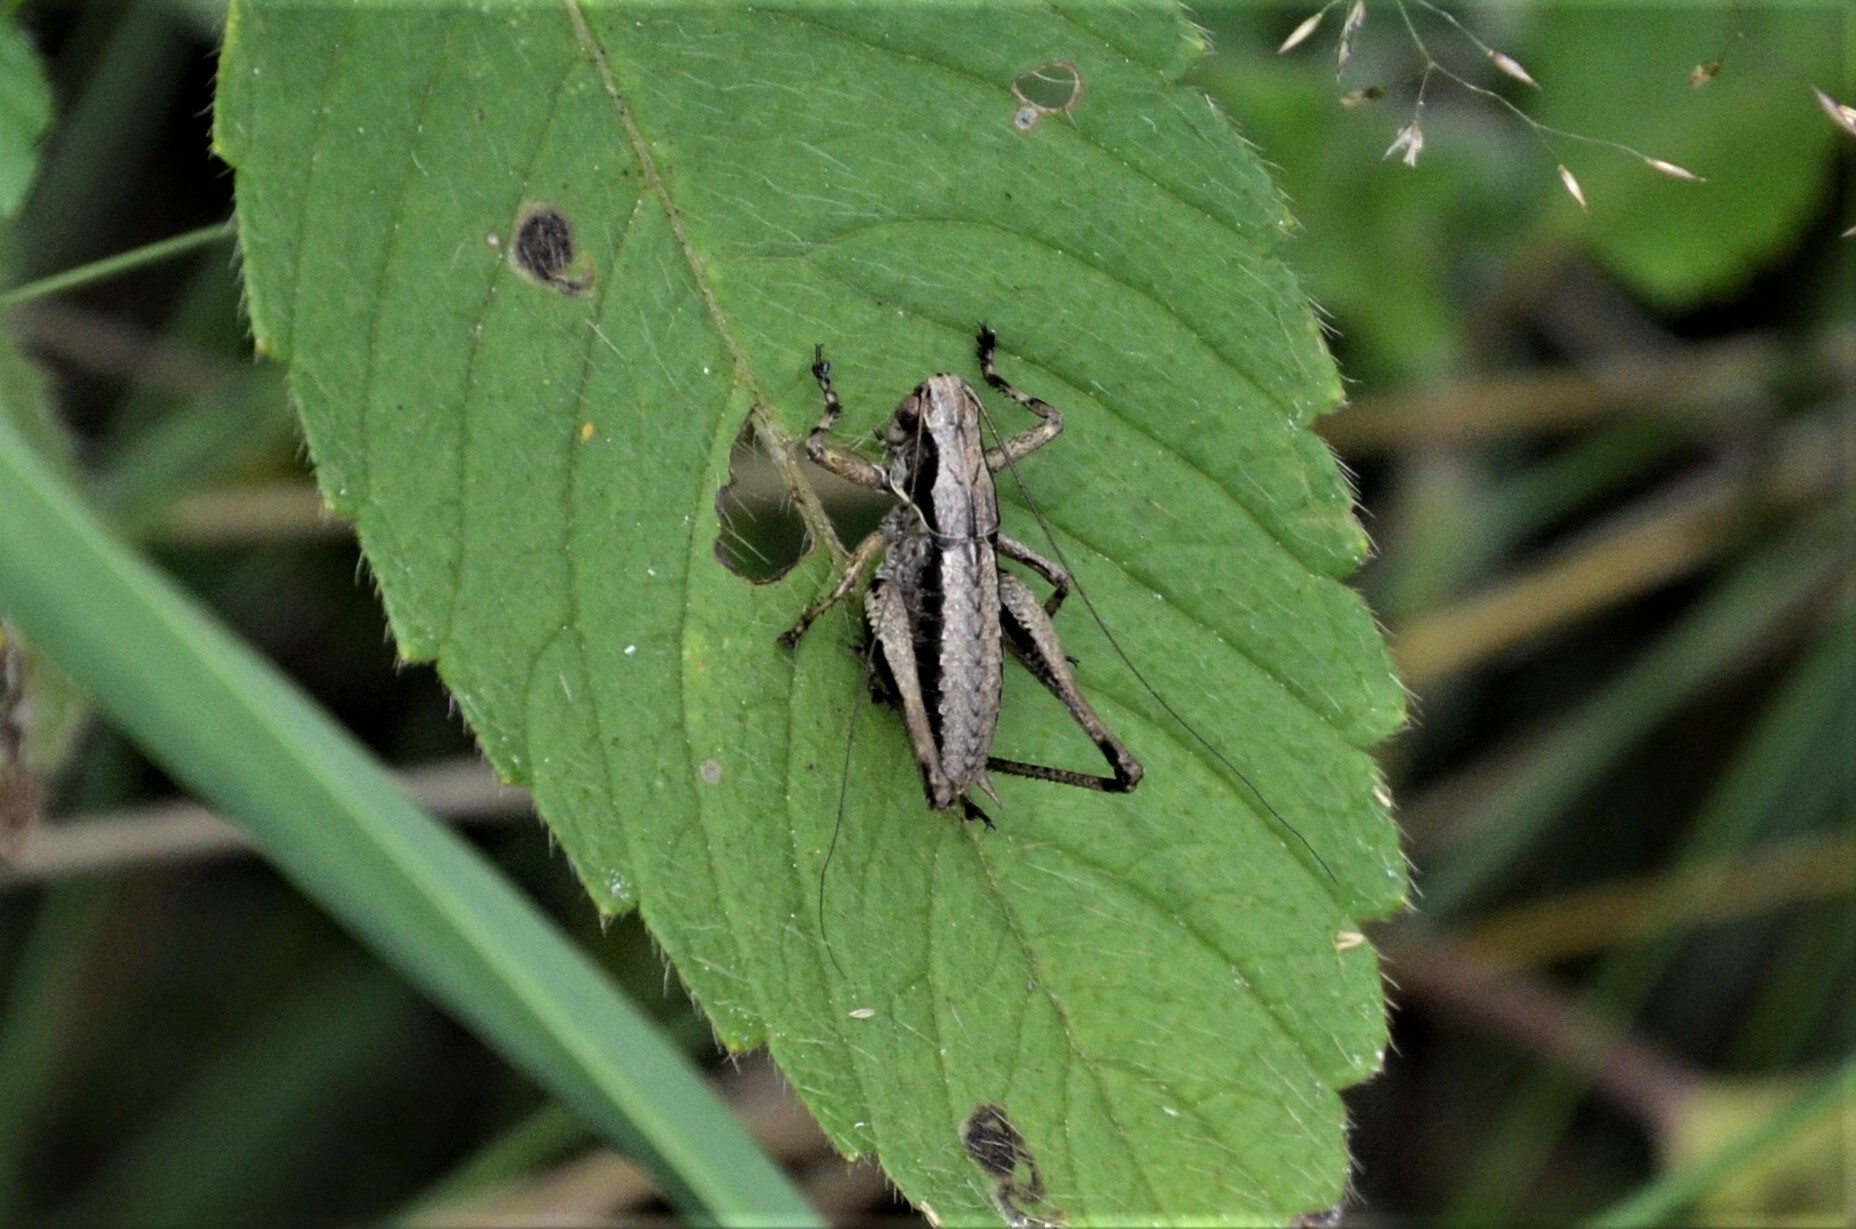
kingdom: Animalia
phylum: Arthropoda
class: Insecta
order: Orthoptera
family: Tettigoniidae
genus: Pholidoptera
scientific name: Pholidoptera griseoaptera
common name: Dark bush-cricket
